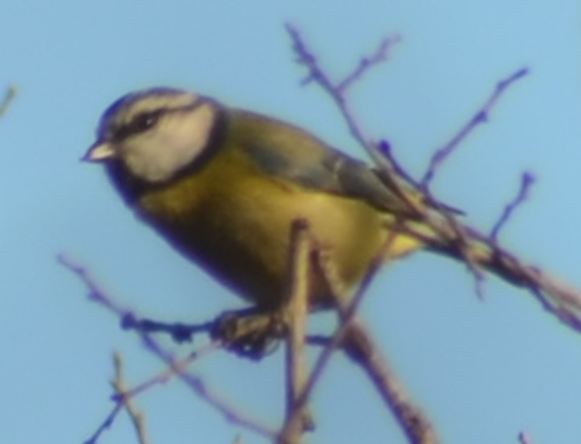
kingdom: Animalia
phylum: Chordata
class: Aves
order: Passeriformes
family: Paridae
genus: Cyanistes
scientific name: Cyanistes caeruleus
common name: Eurasian blue tit
